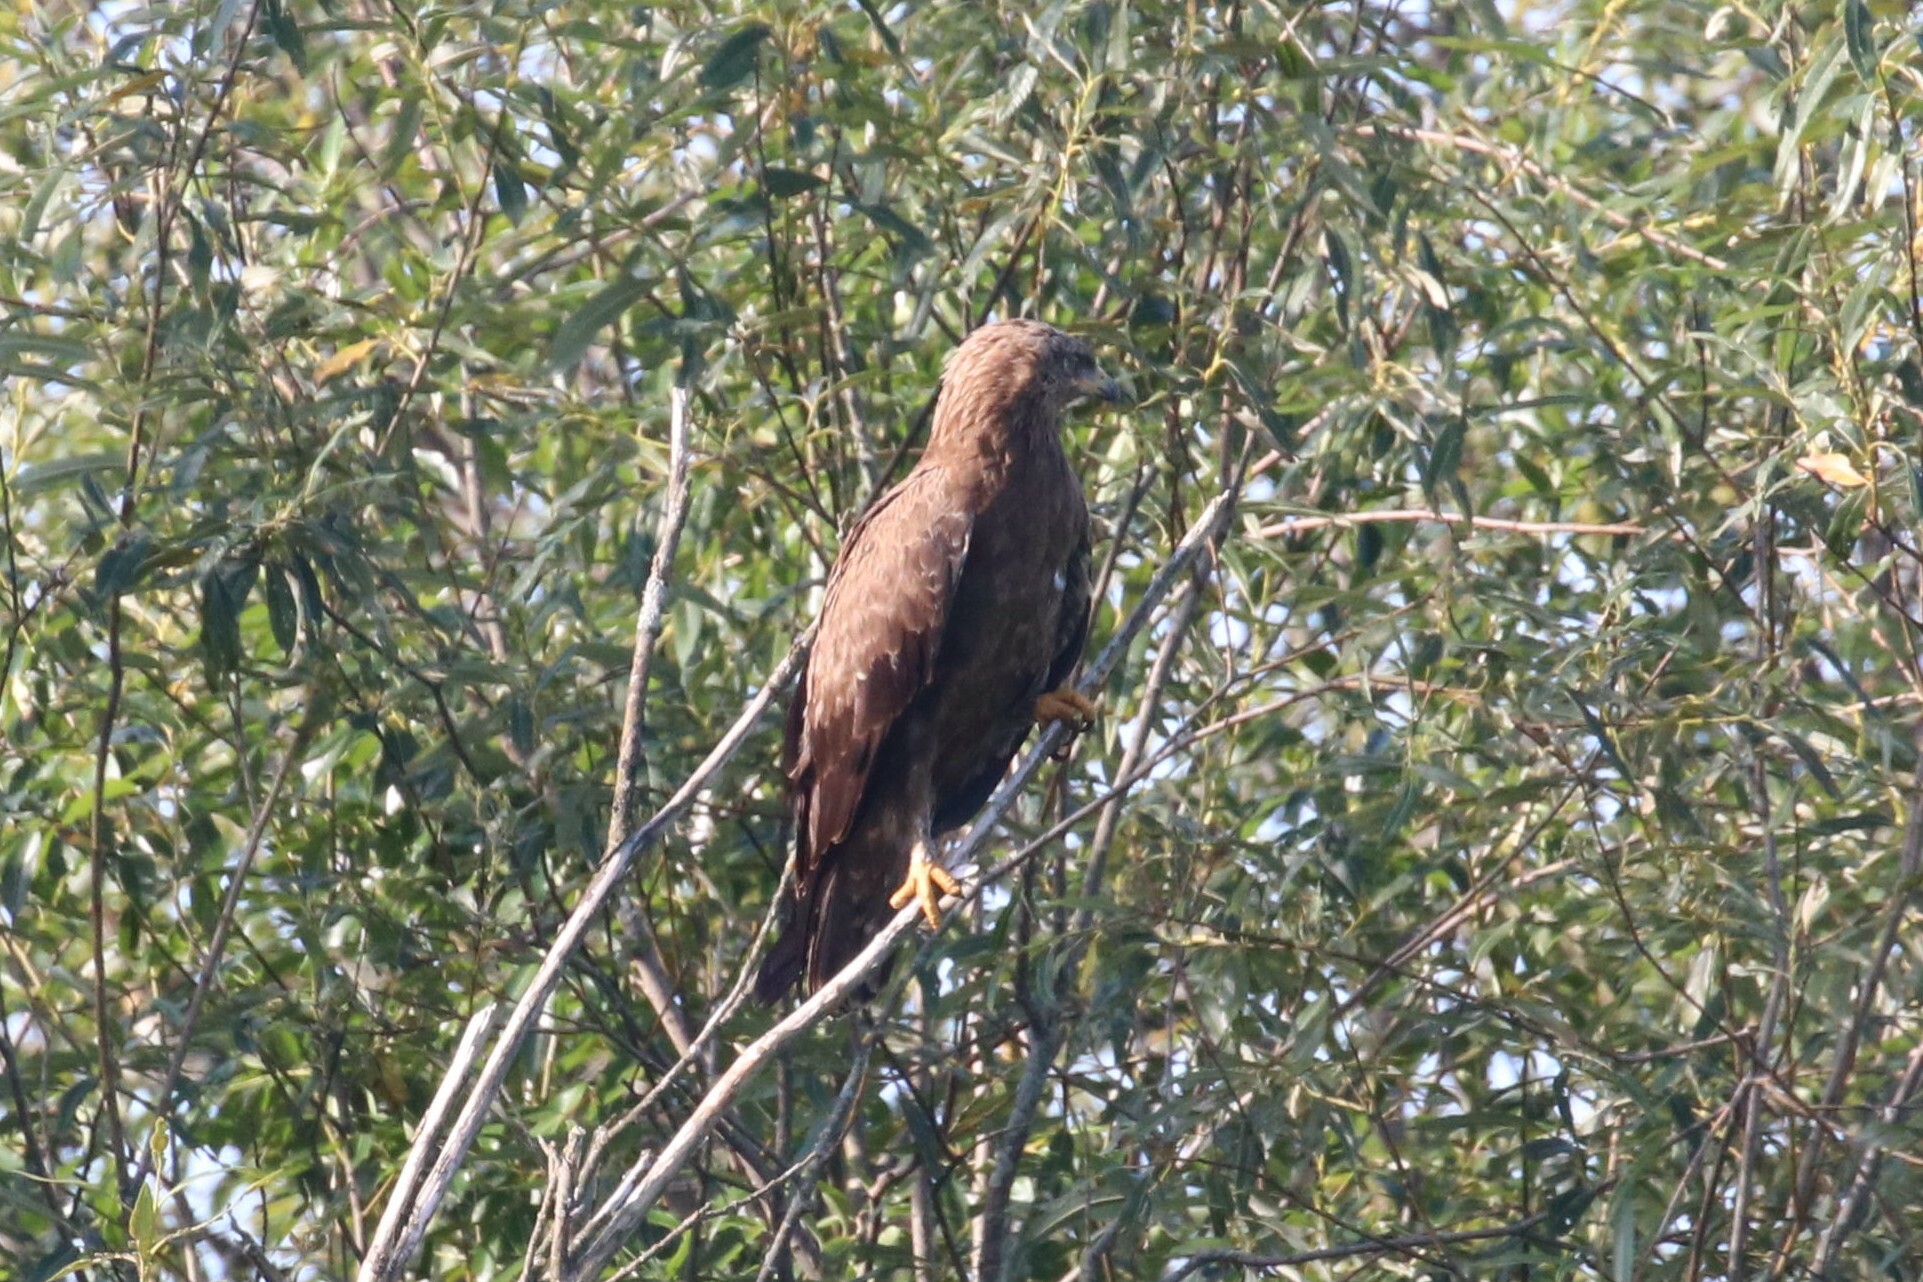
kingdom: Animalia
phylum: Chordata
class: Aves
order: Accipitriformes
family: Accipitridae
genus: Aquila
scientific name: Aquila pomarina
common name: Lesser spotted eagle
